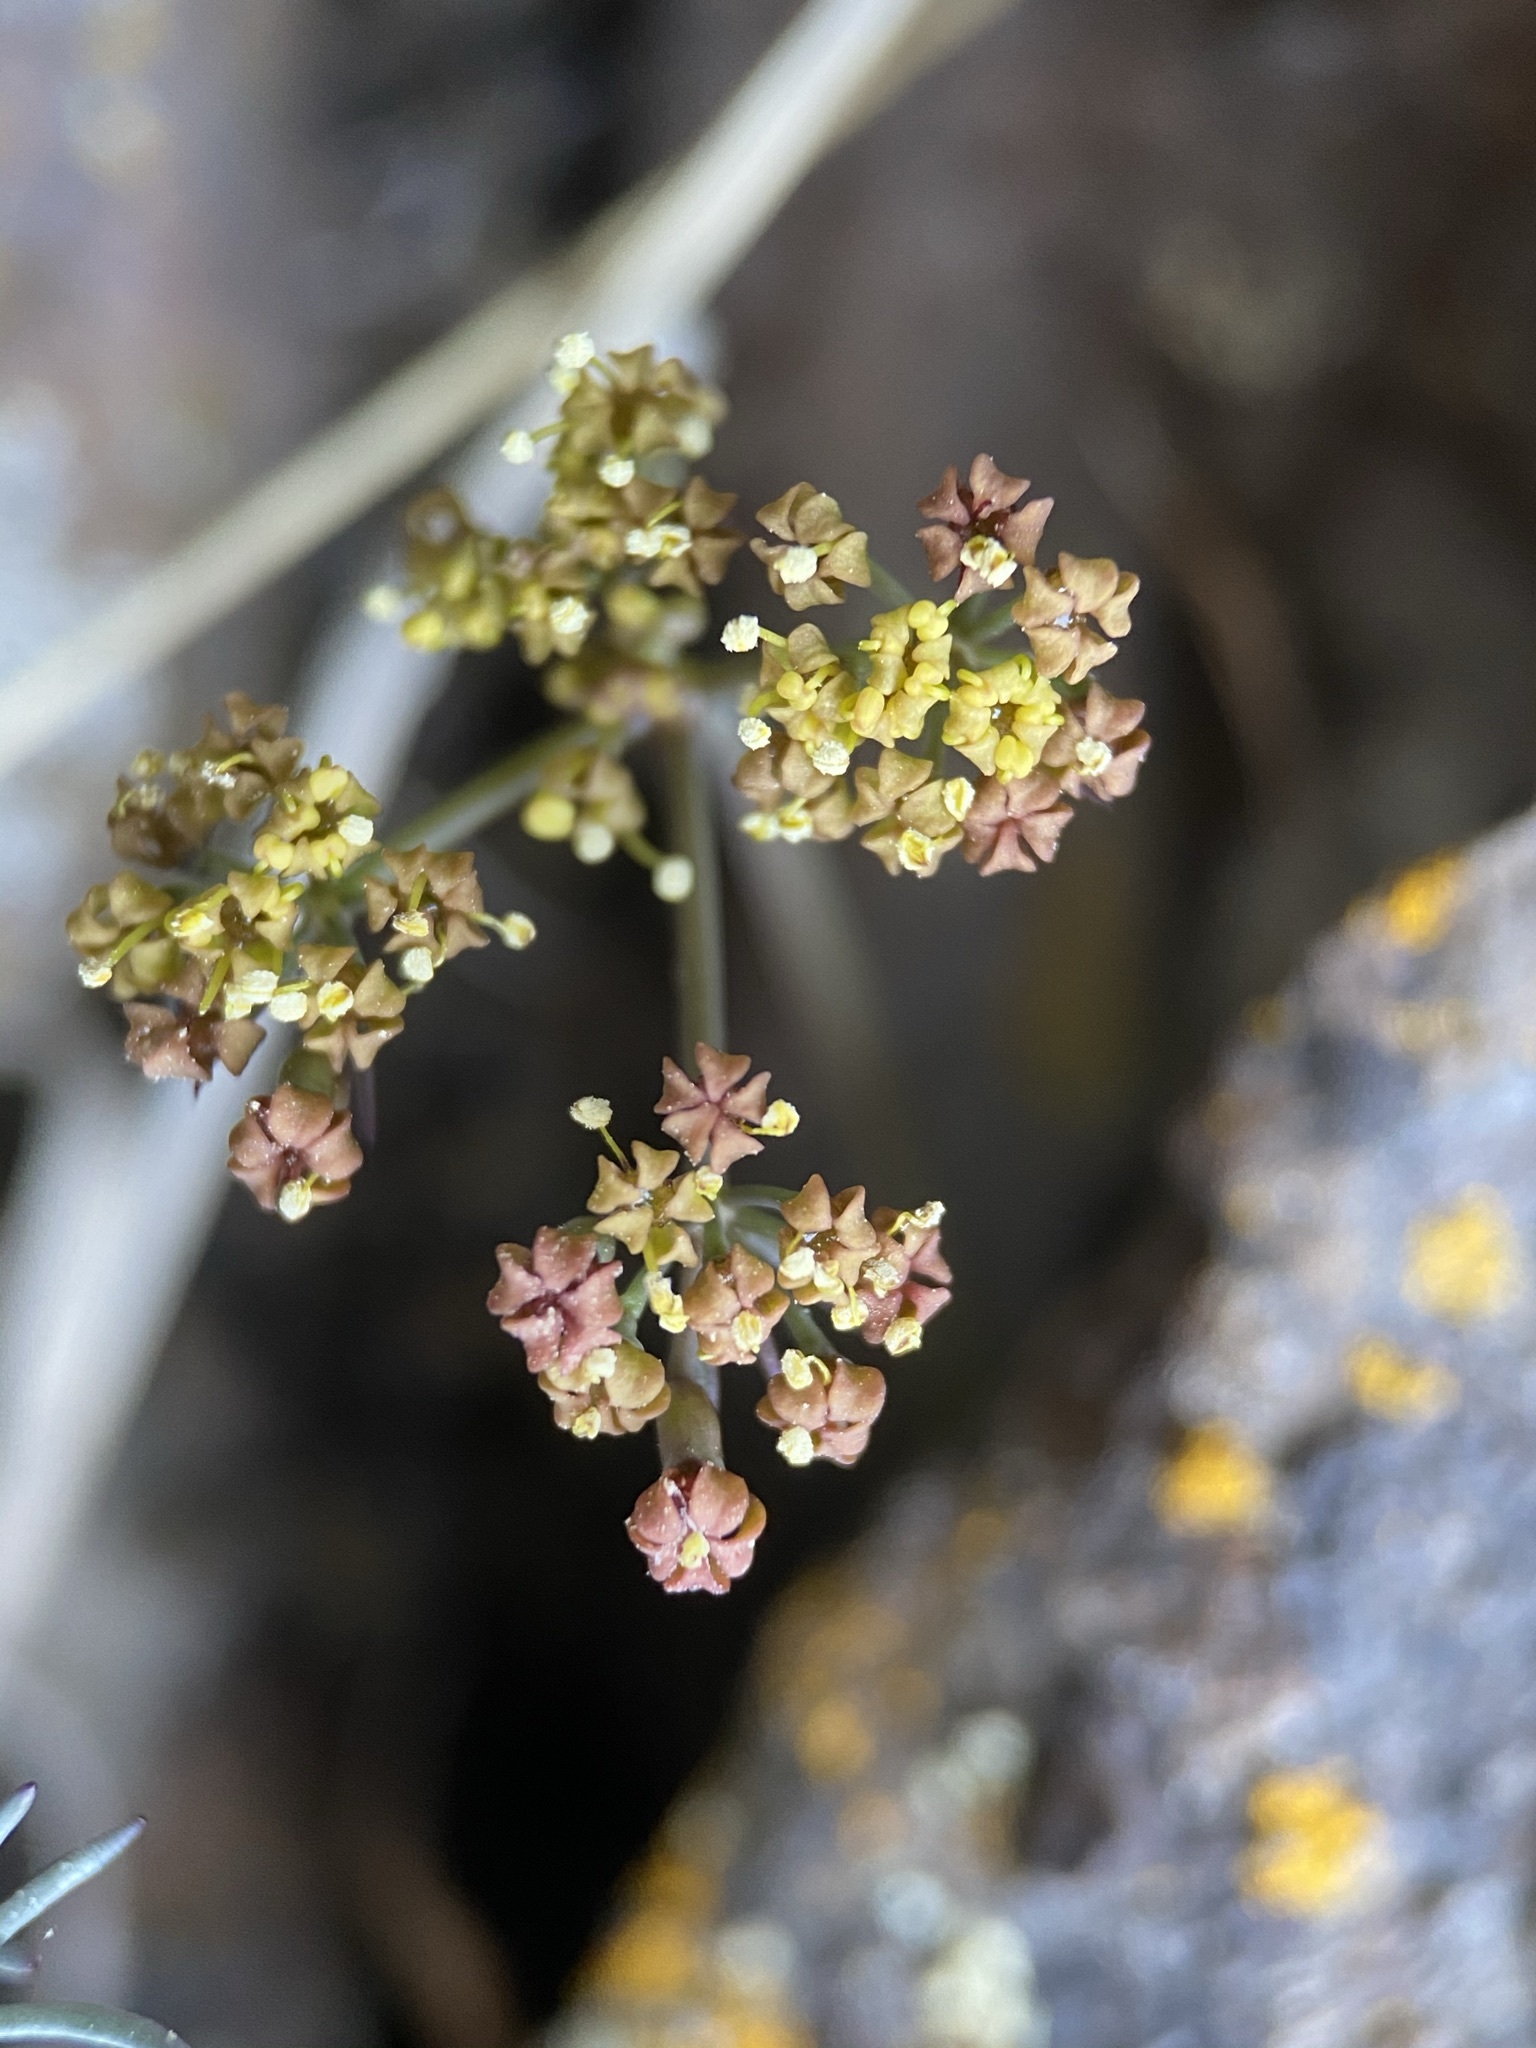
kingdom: Plantae
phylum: Tracheophyta
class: Magnoliopsida
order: Apiales
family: Apiaceae
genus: Lomatium
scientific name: Lomatium tuberosum
